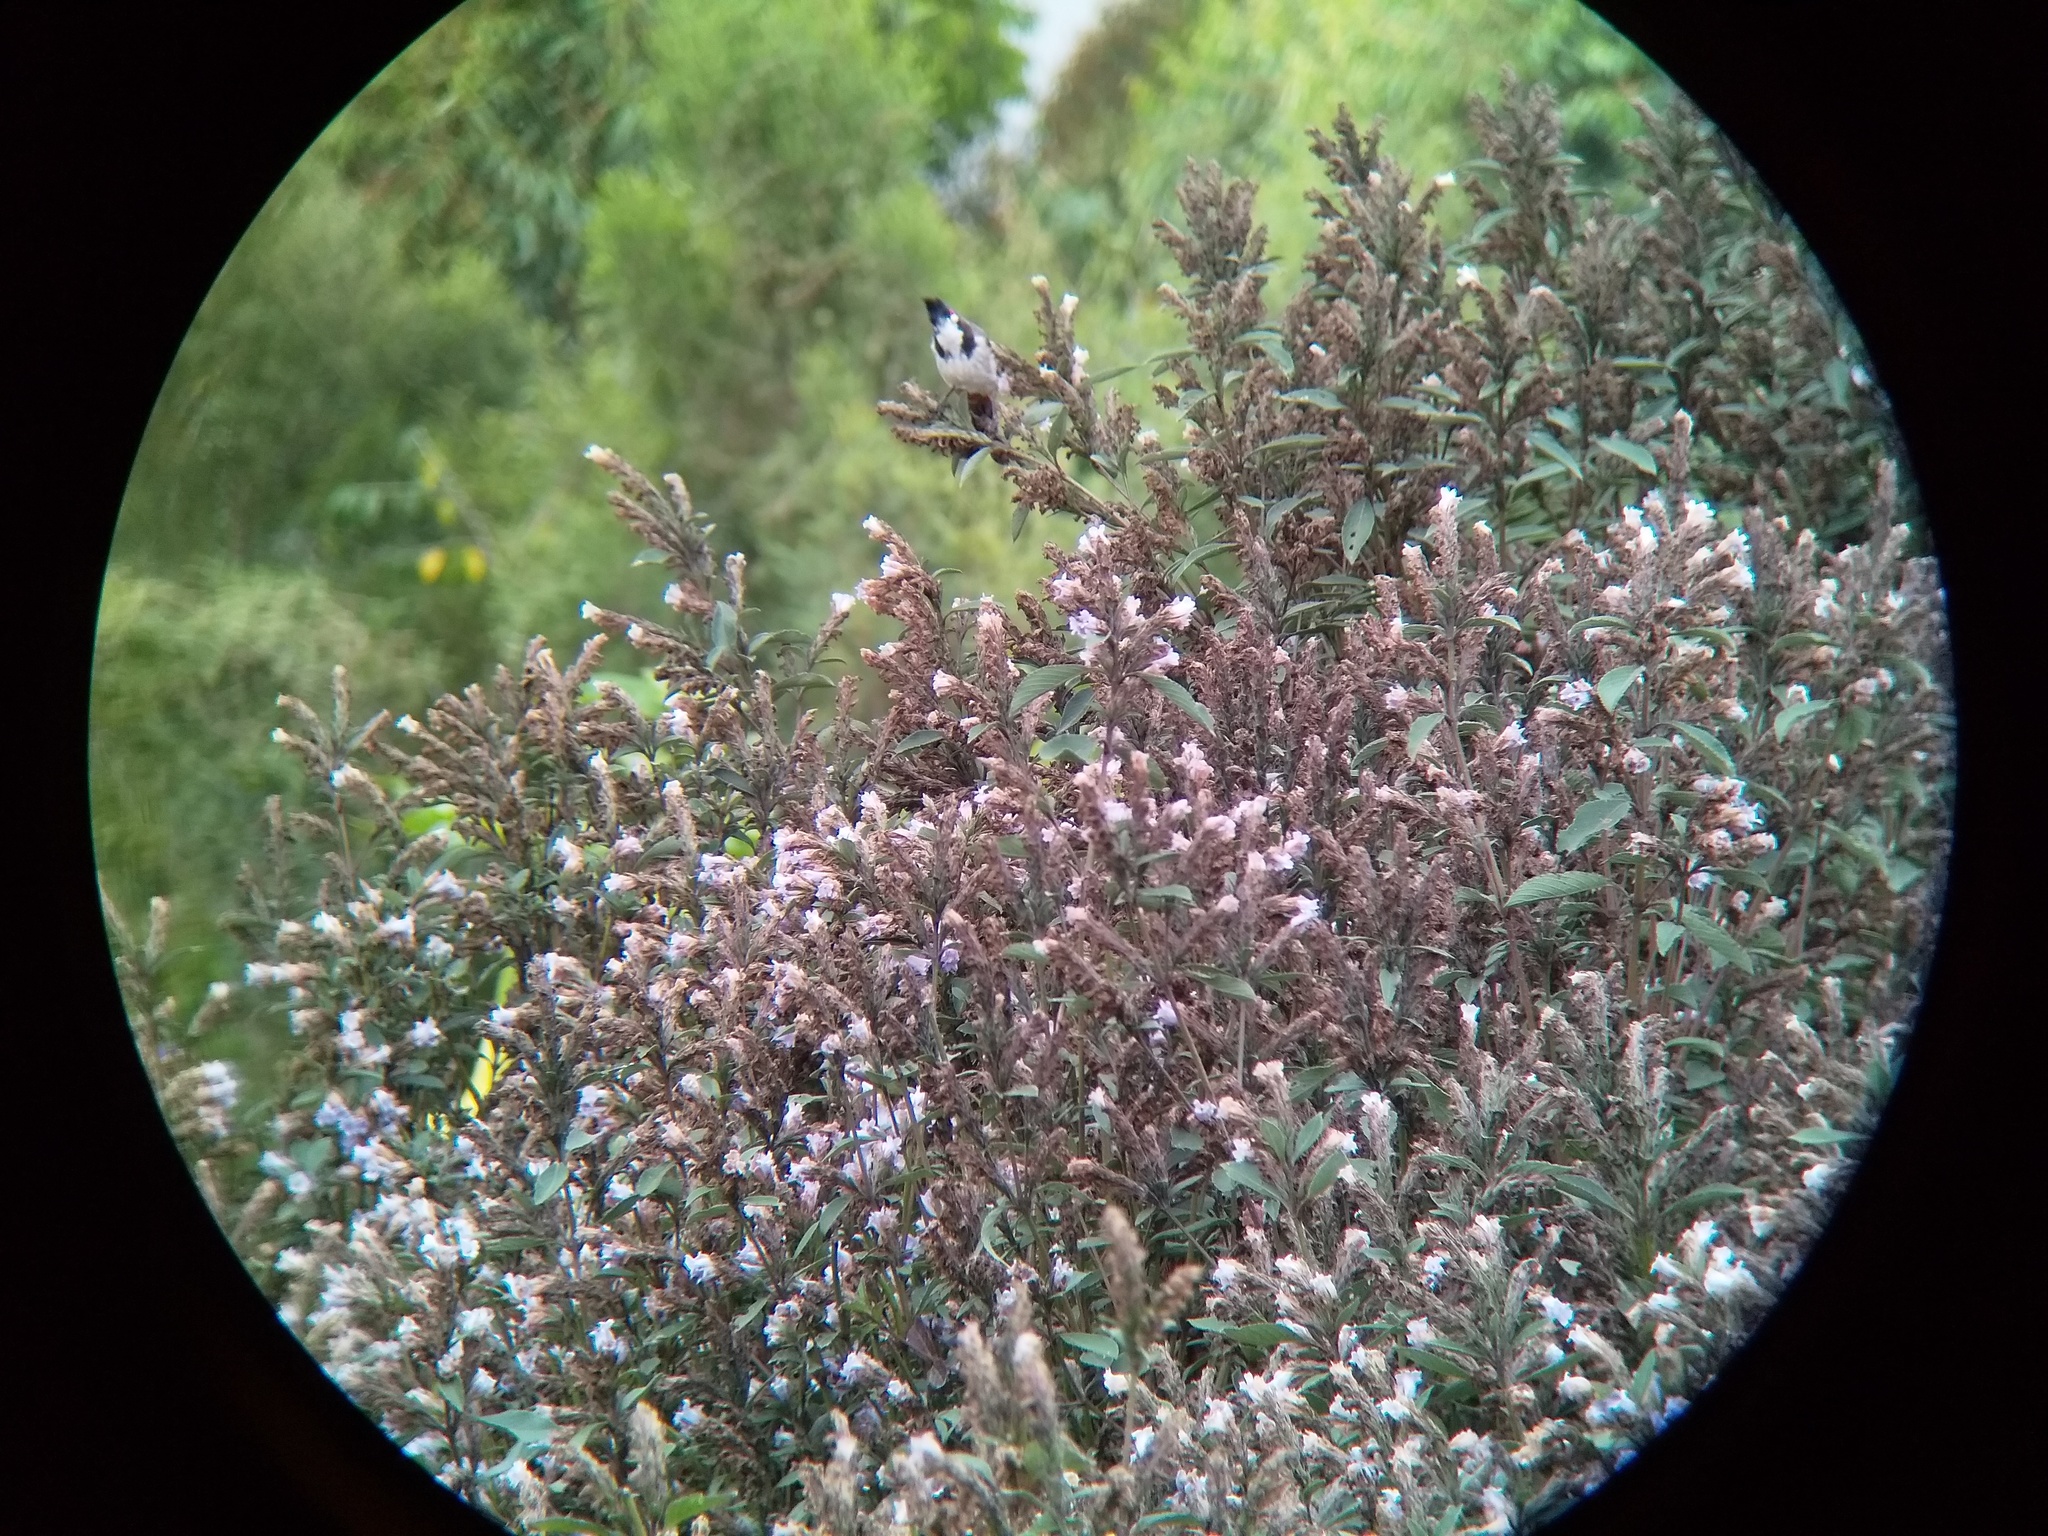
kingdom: Plantae
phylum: Tracheophyta
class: Magnoliopsida
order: Lamiales
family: Acanthaceae
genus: Strobilanthes
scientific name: Strobilanthes kunthiana
